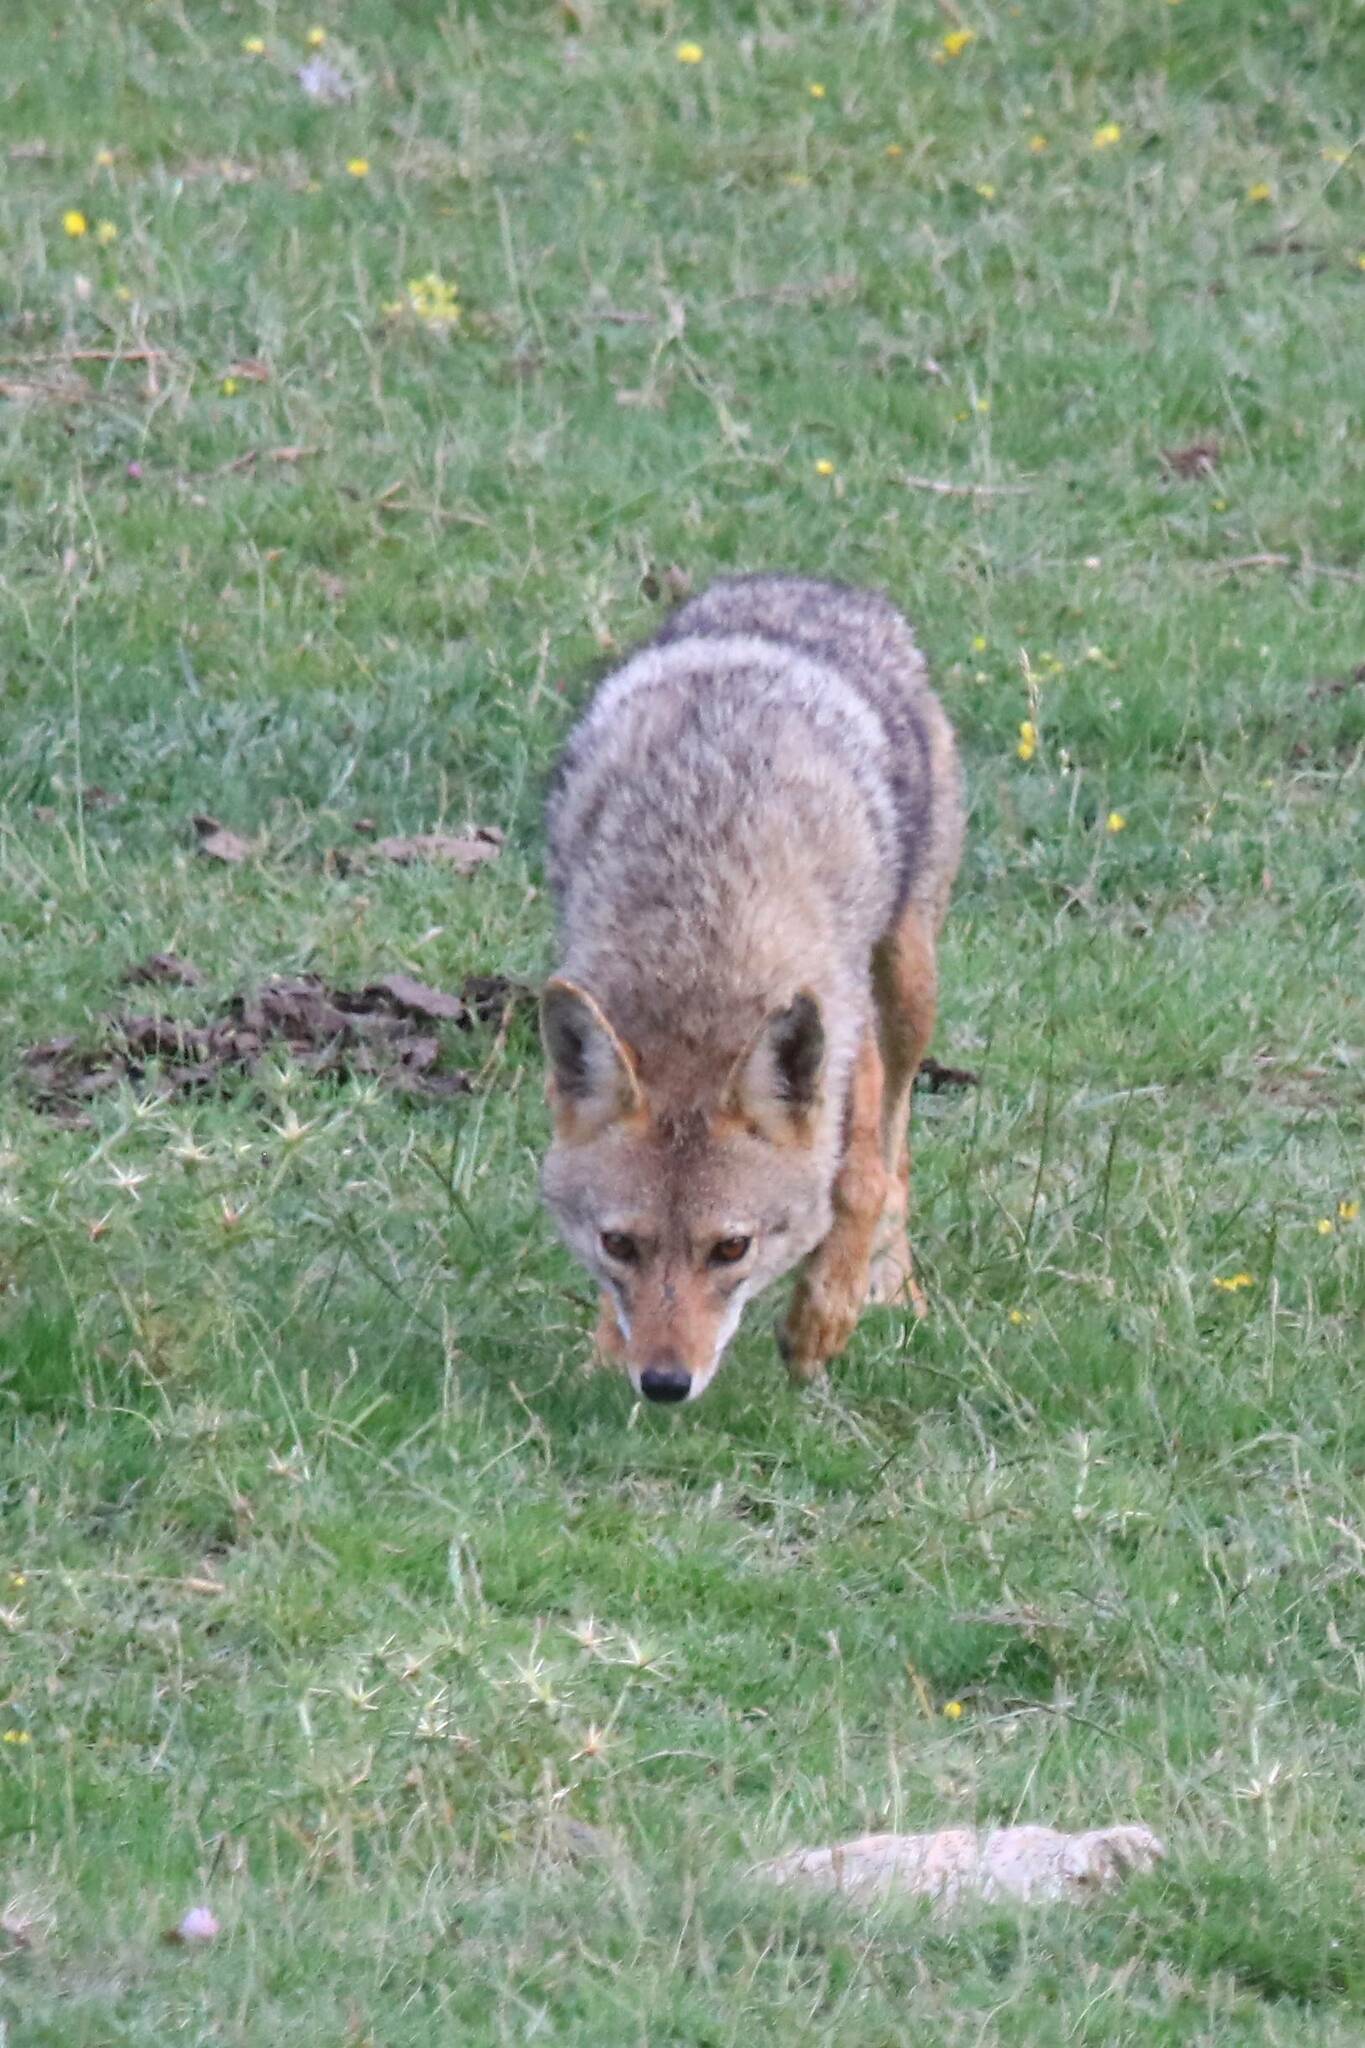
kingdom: Animalia
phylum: Chordata
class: Mammalia
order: Carnivora
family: Canidae
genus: Canis
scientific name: Canis lupaster
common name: African golden wolf
